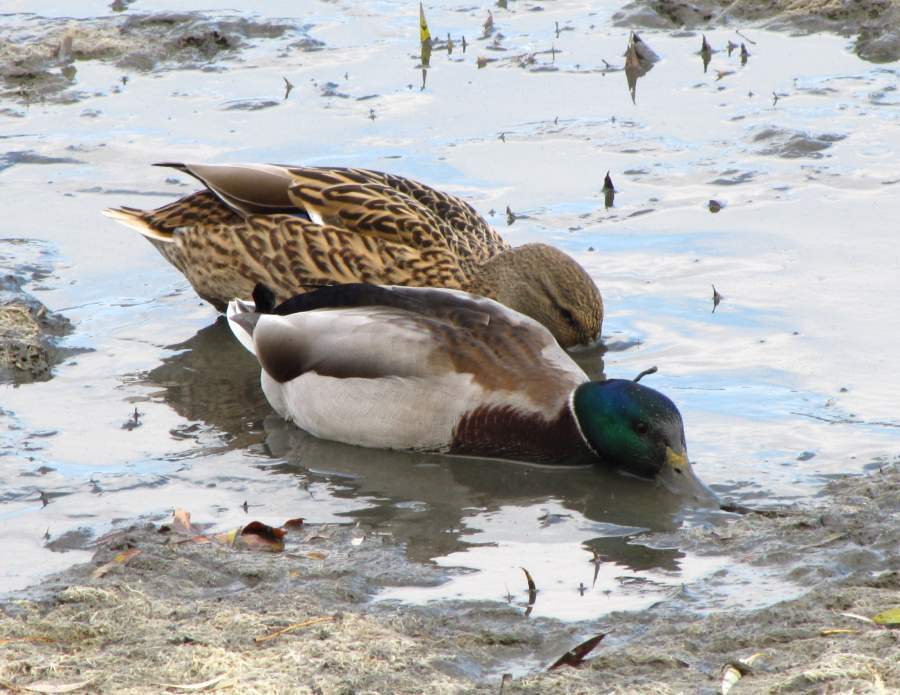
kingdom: Animalia
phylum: Chordata
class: Aves
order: Anseriformes
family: Anatidae
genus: Anas
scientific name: Anas platyrhynchos
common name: Mallard
